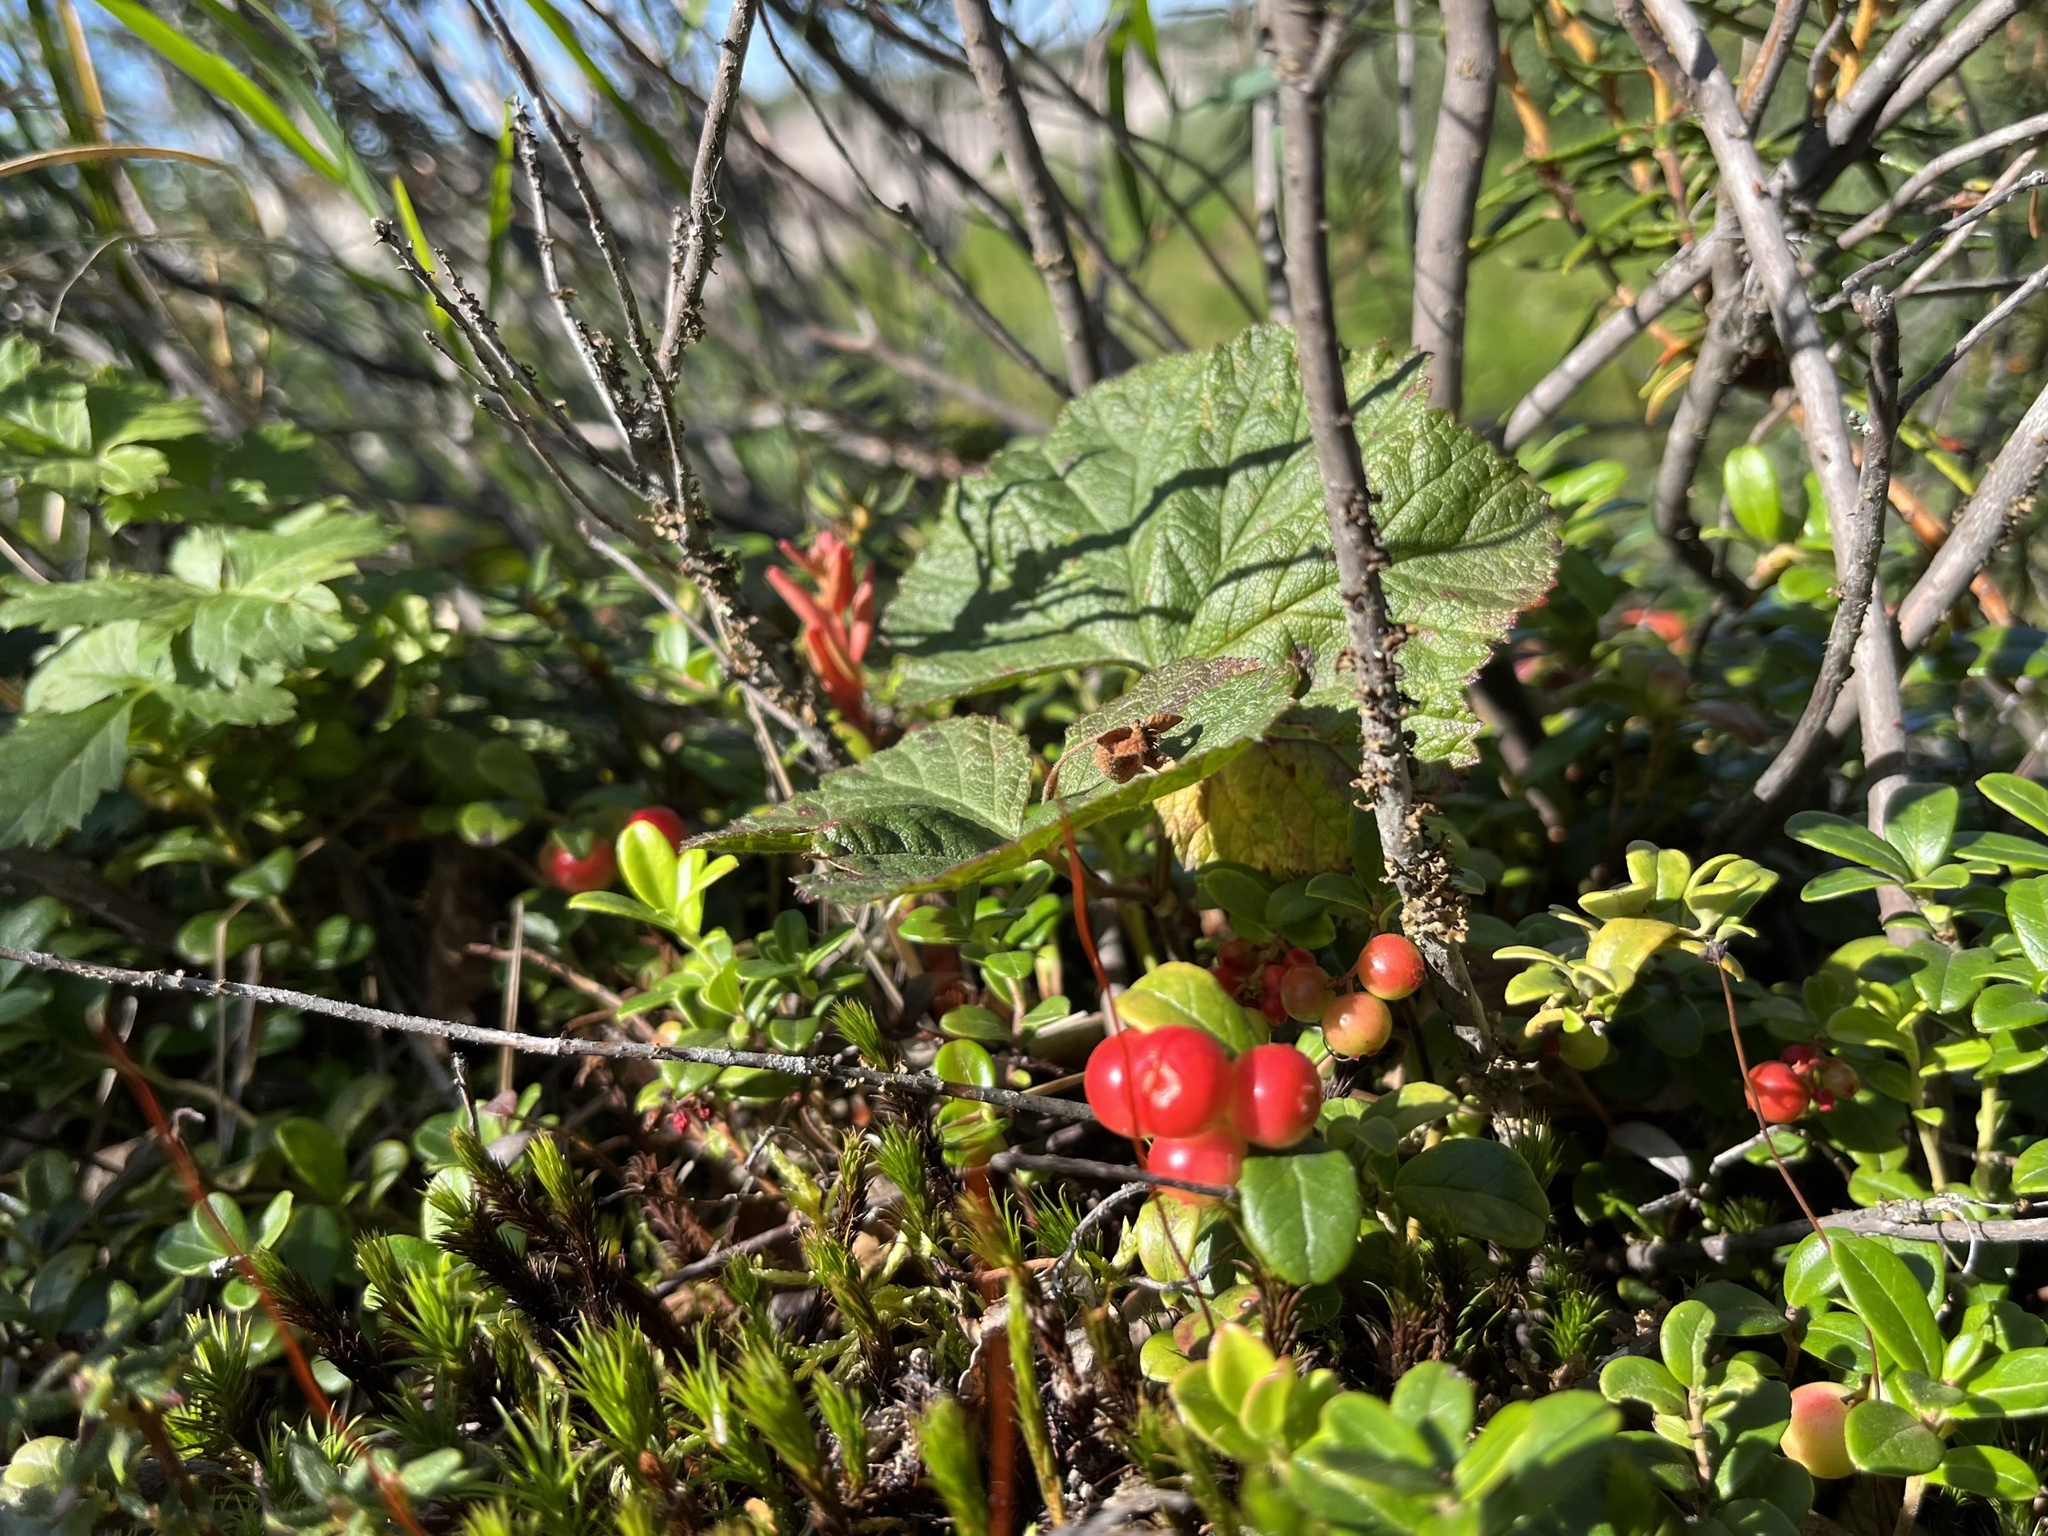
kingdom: Plantae
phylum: Tracheophyta
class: Magnoliopsida
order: Ericales
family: Ericaceae
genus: Vaccinium
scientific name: Vaccinium vitis-idaea
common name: Cowberry
